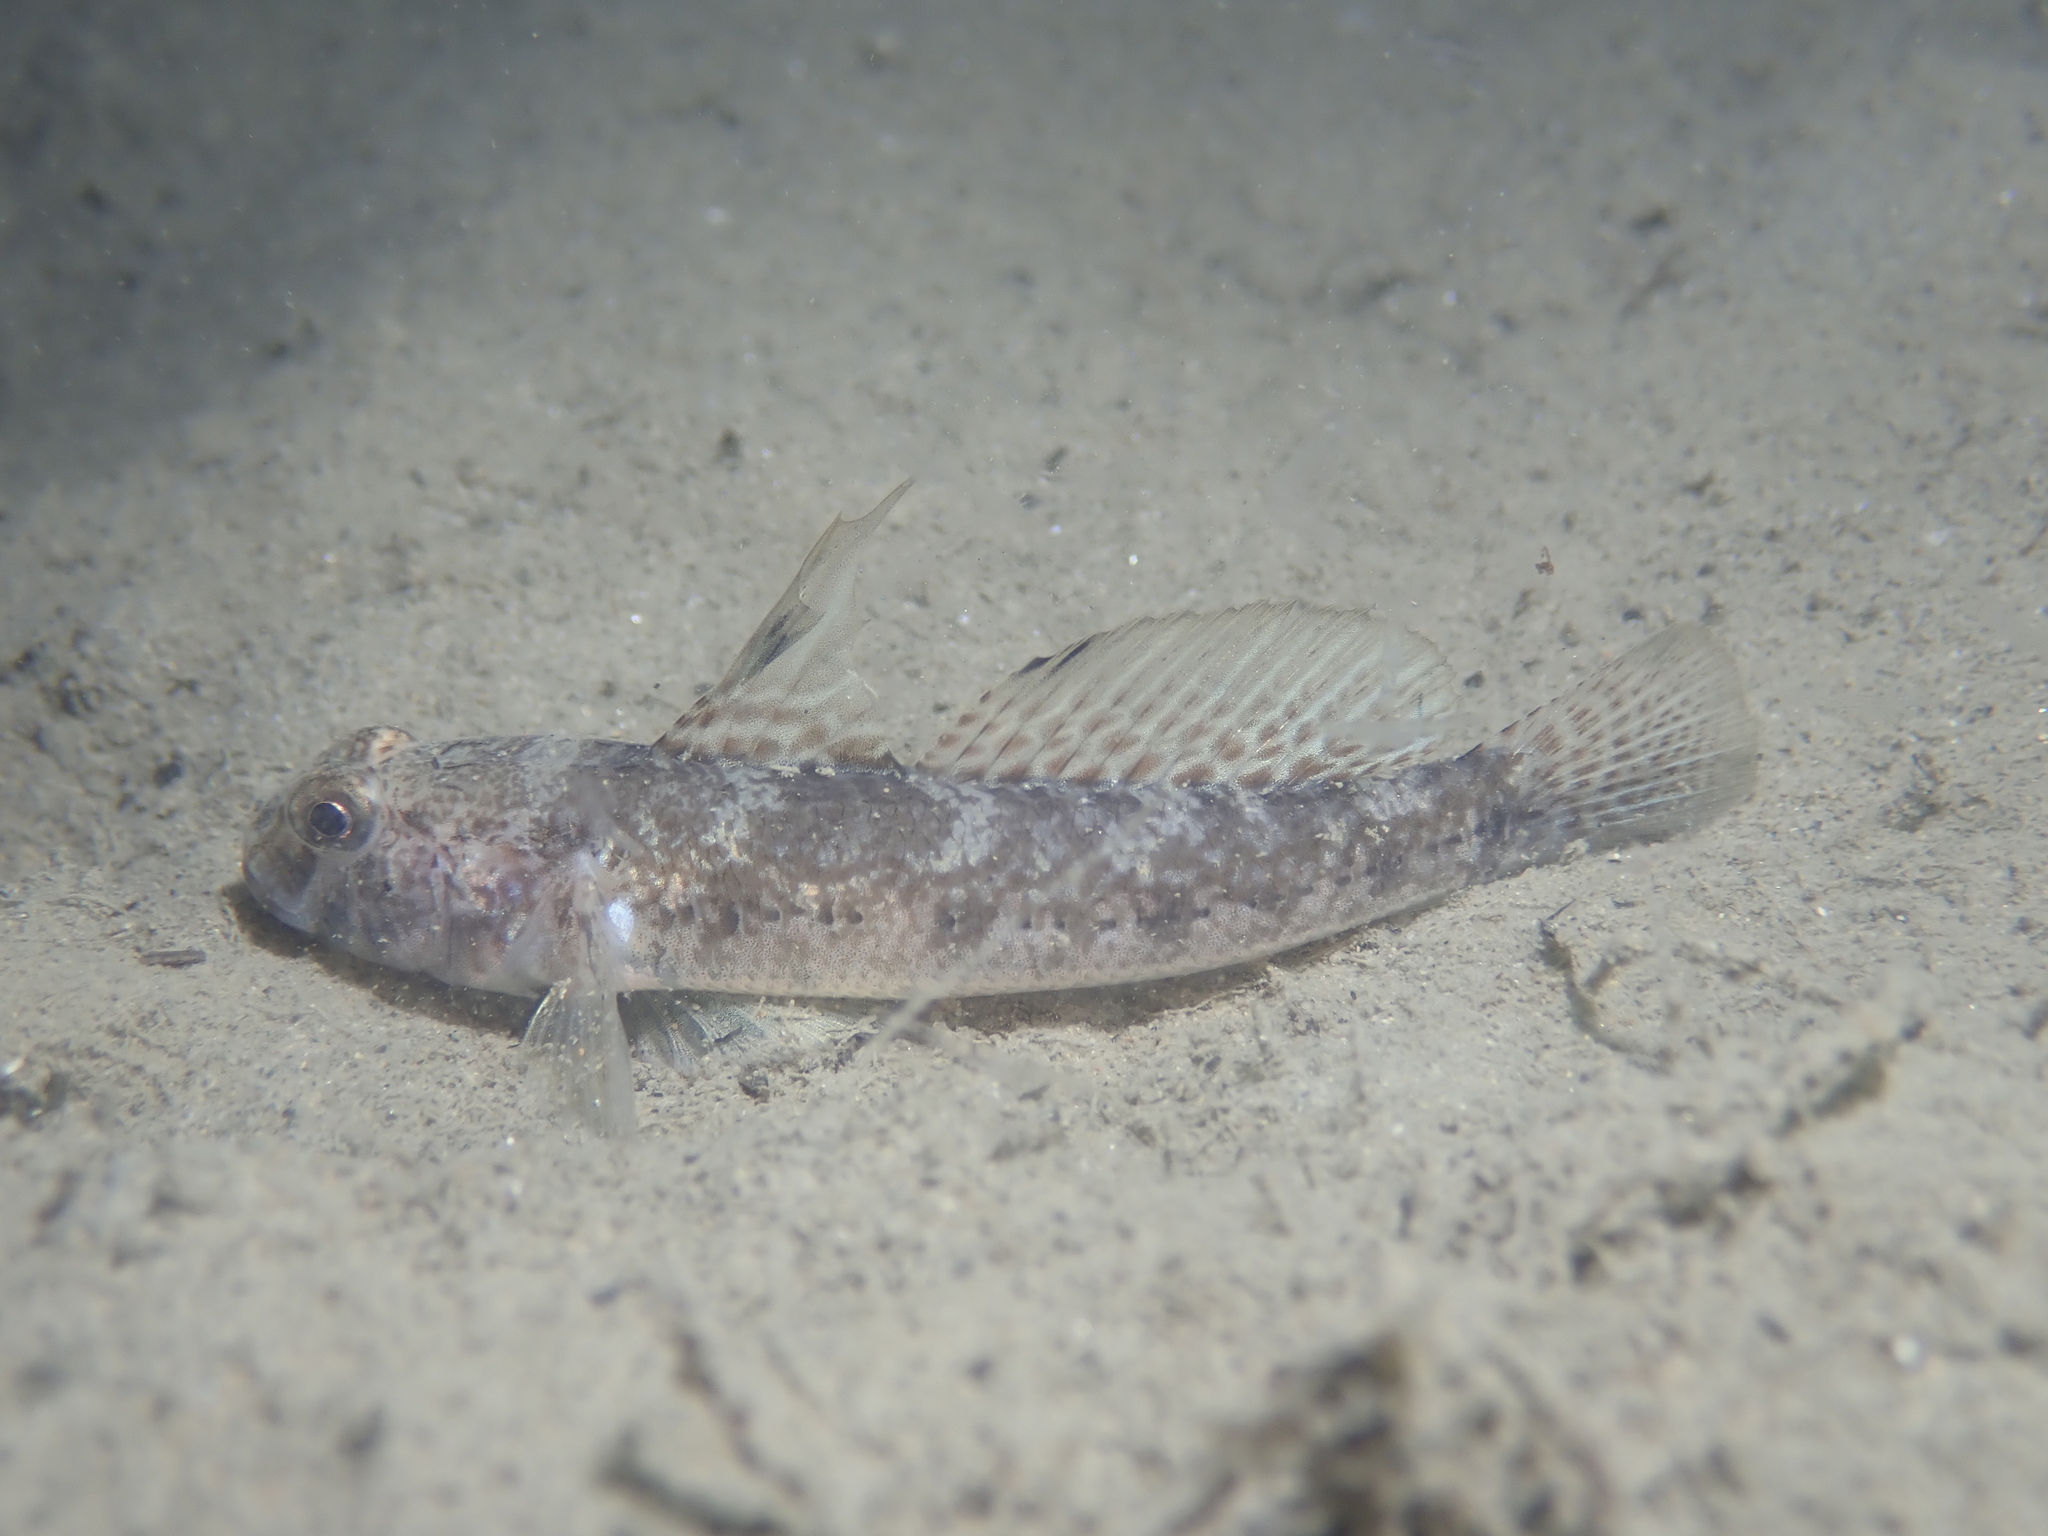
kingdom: Animalia
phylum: Chordata
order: Perciformes
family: Gobiidae
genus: Gobius
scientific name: Gobius niger
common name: Black goby
